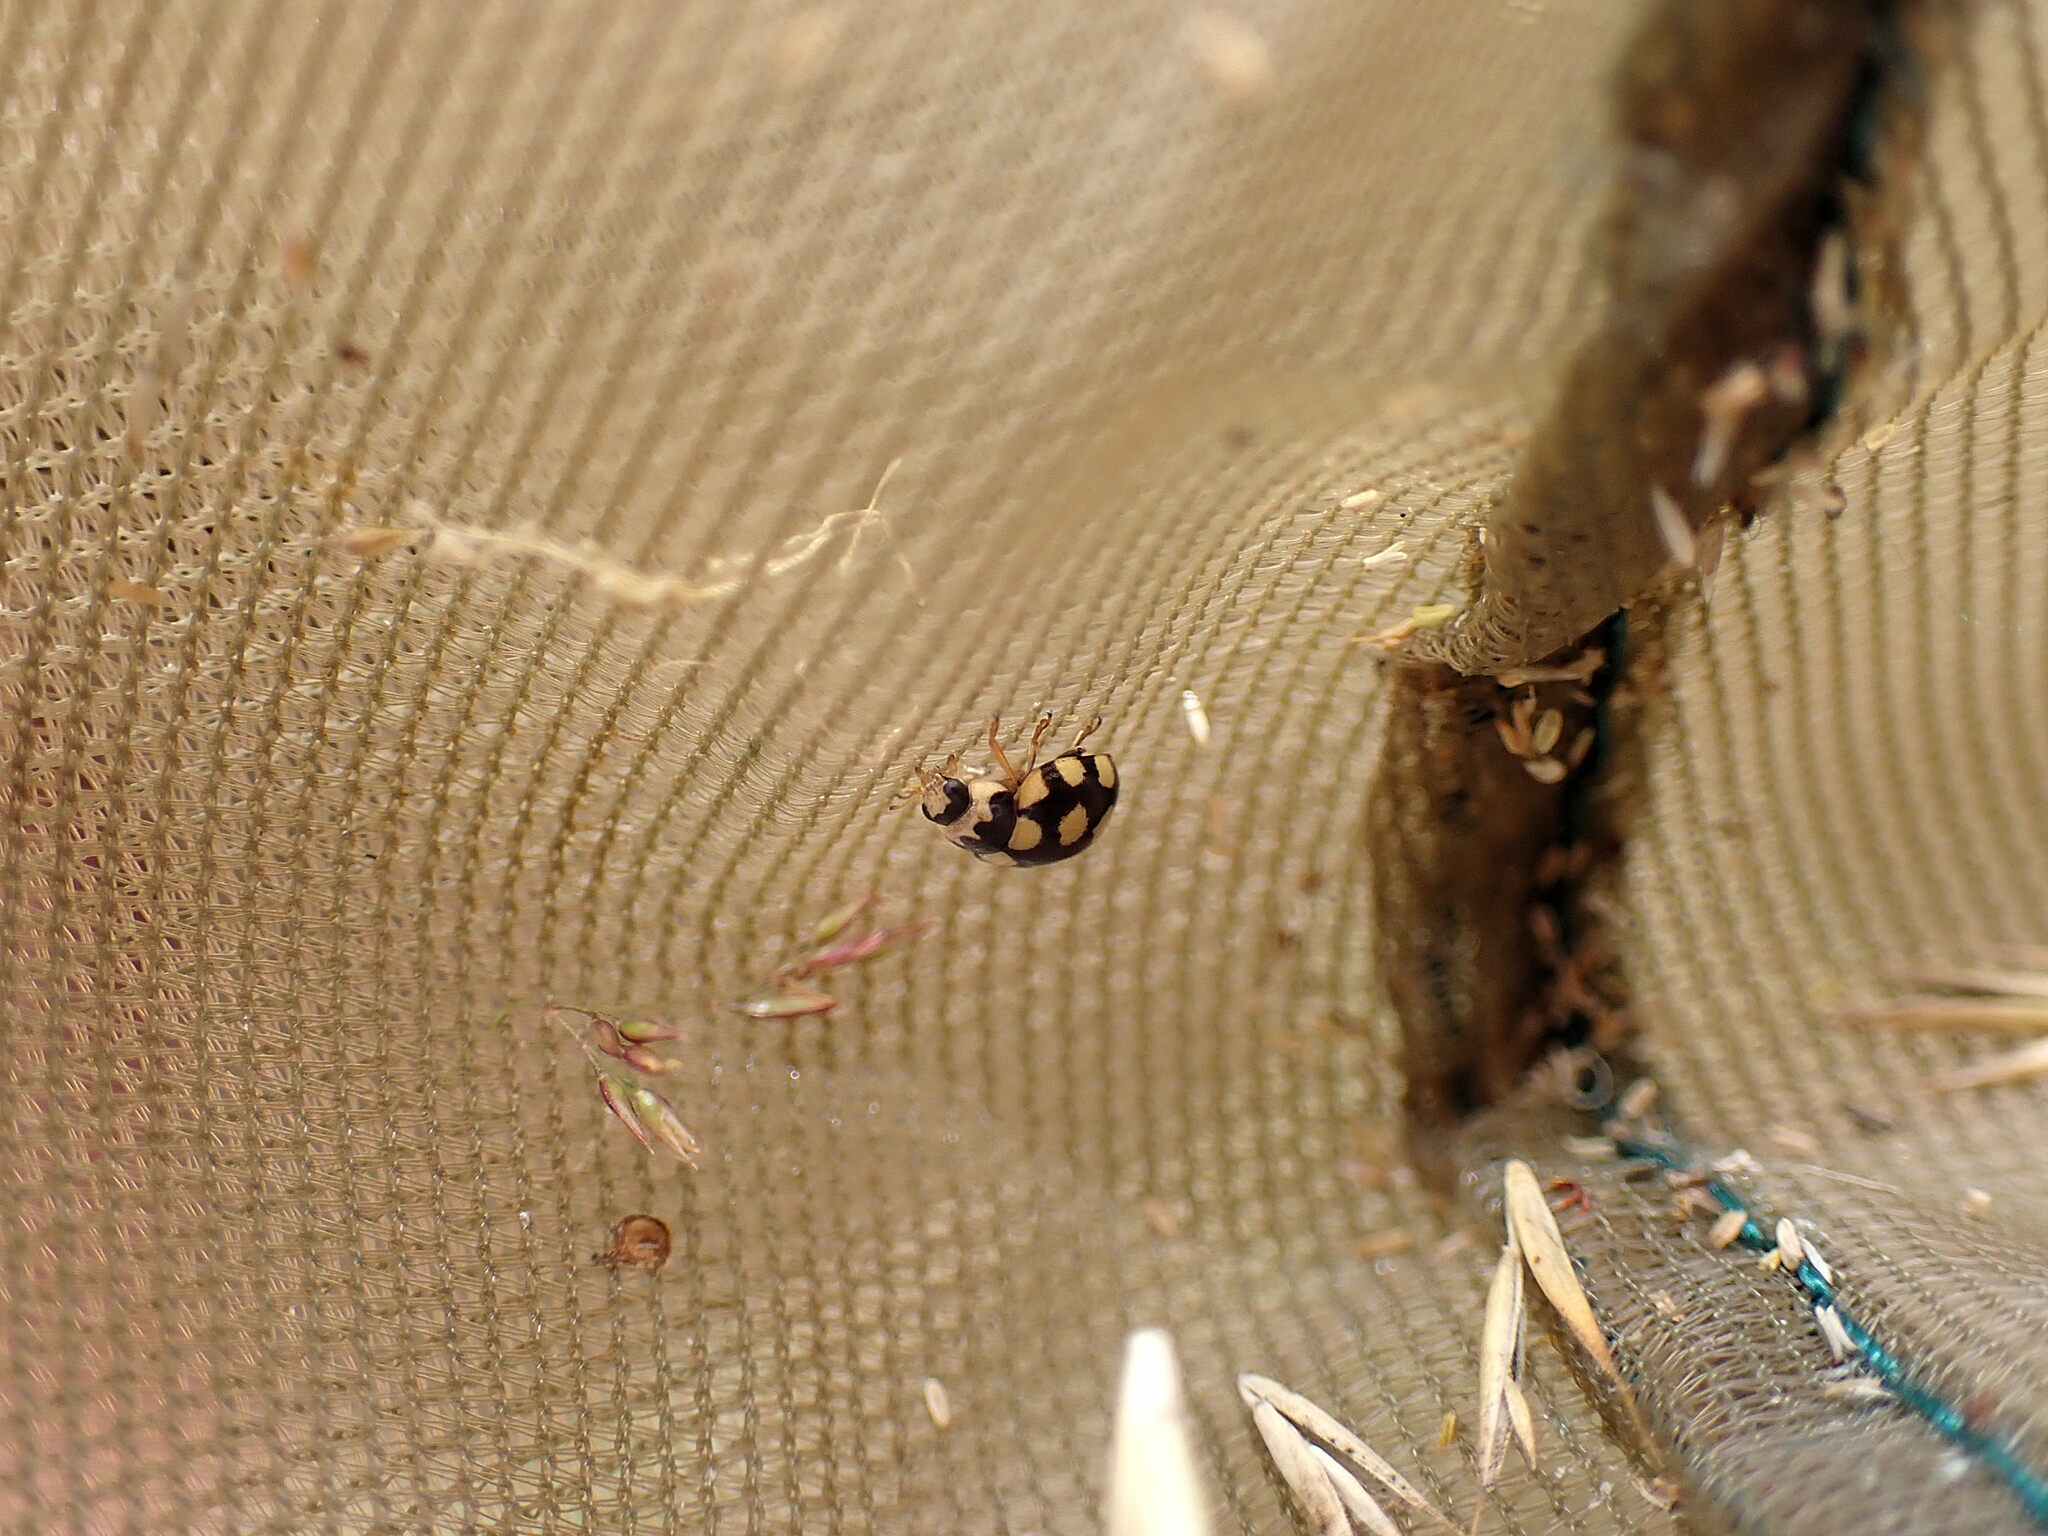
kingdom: Animalia
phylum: Arthropoda
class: Insecta
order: Coleoptera
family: Coccinellidae
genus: Coccinula
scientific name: Coccinula quatuordecimpustulata
